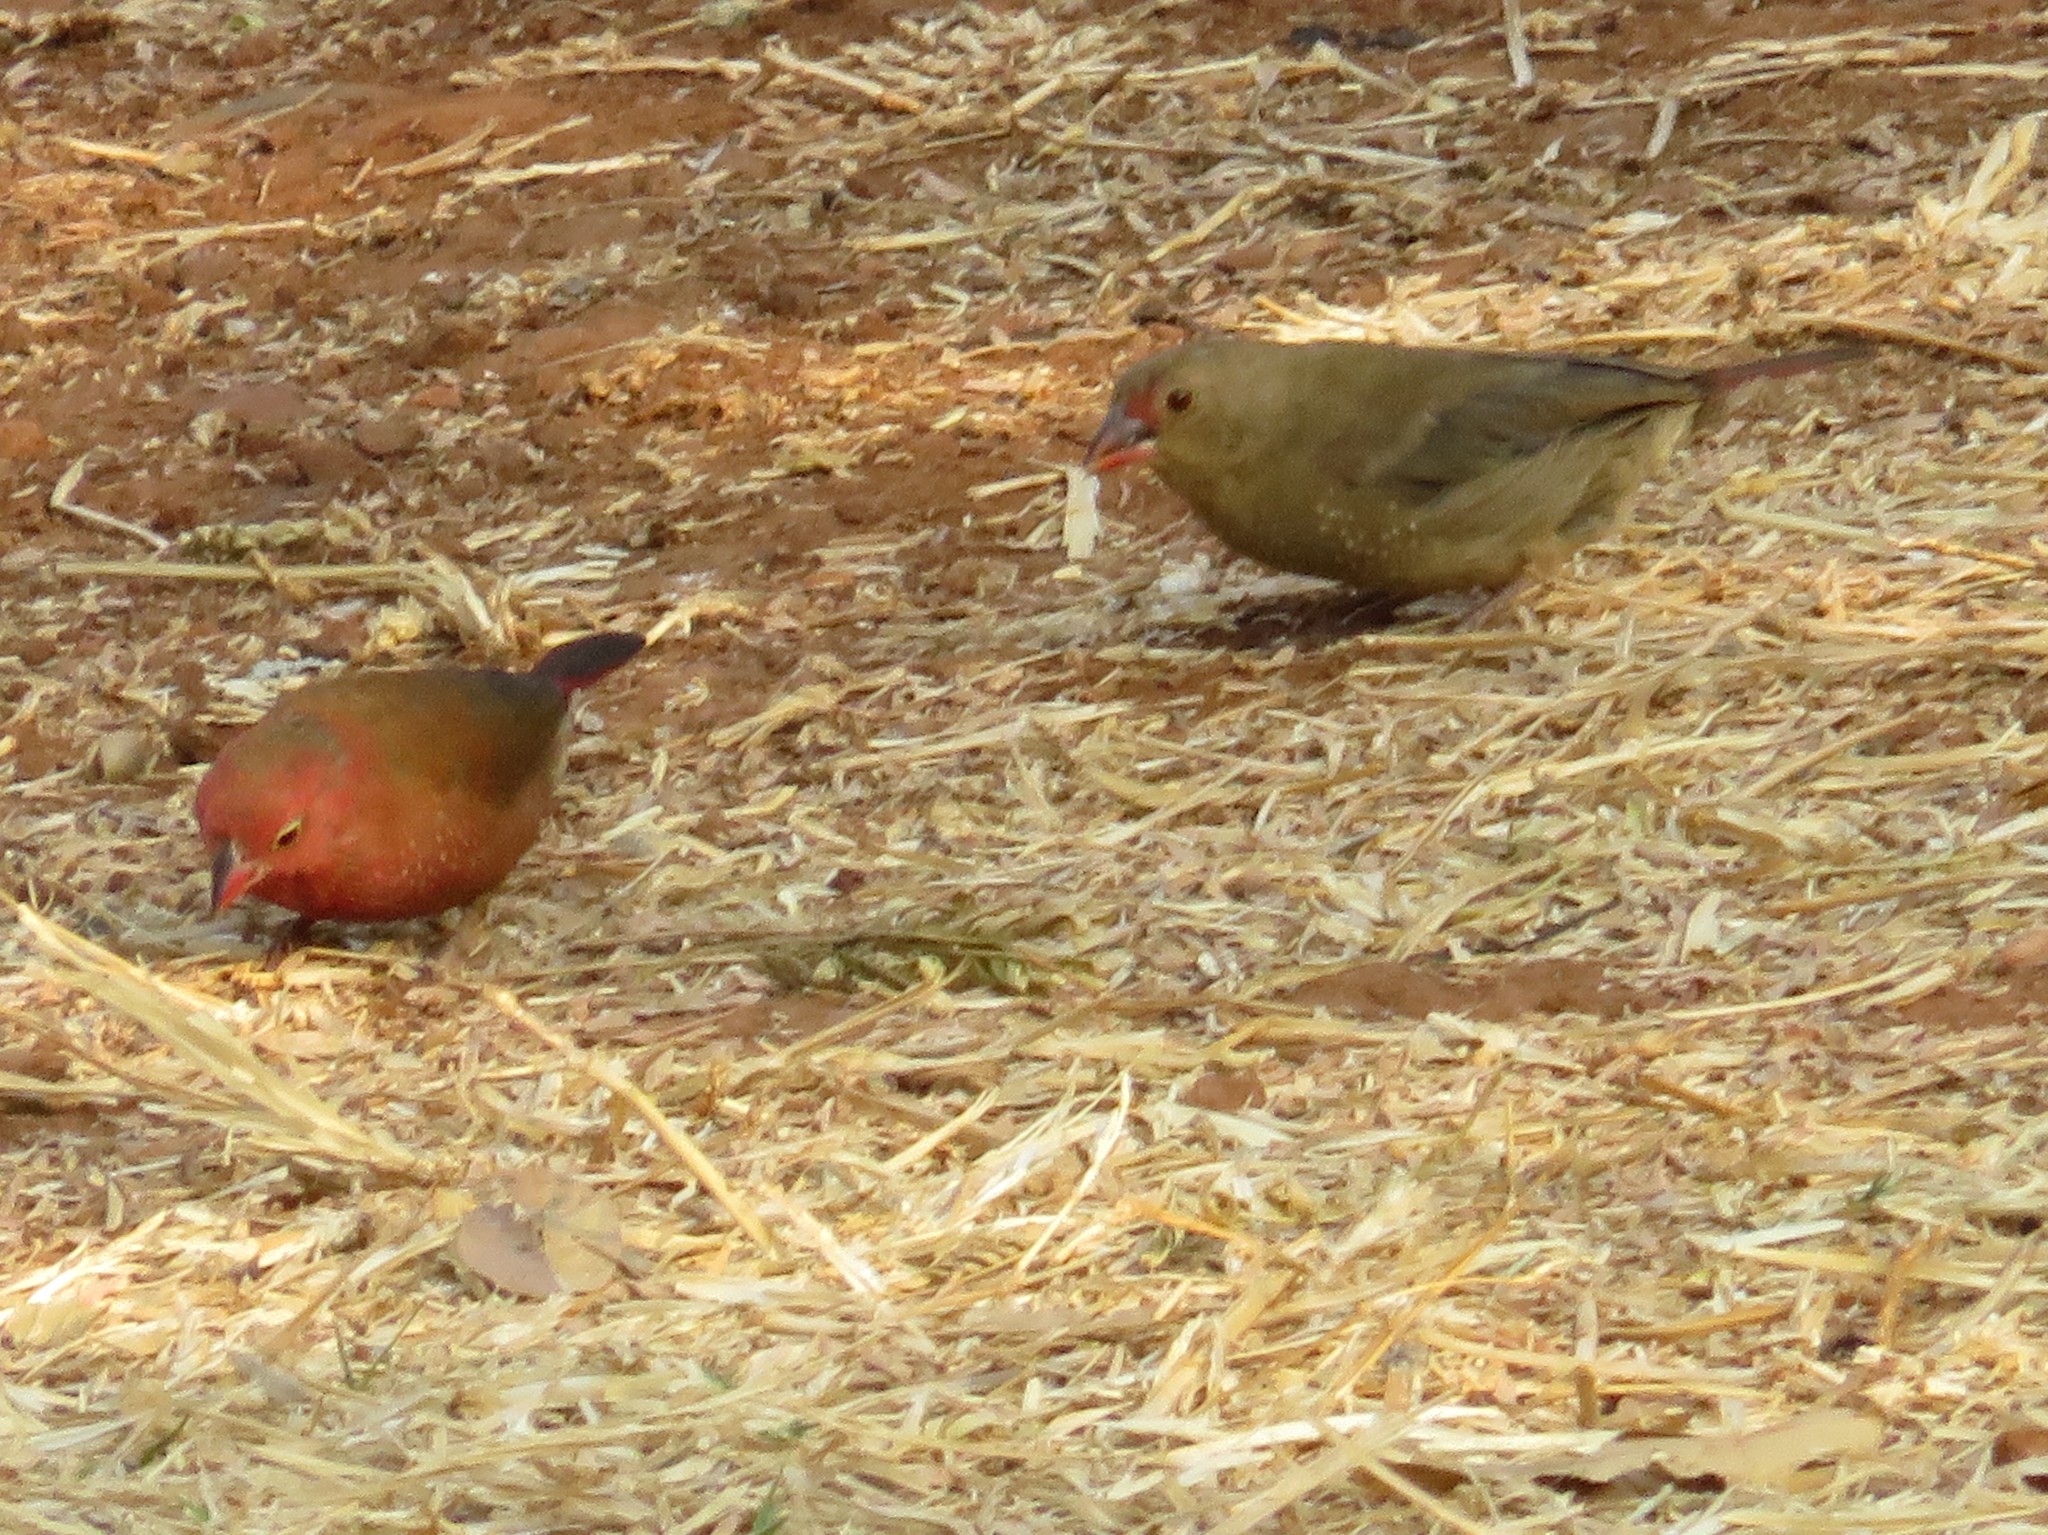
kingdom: Animalia
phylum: Chordata
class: Aves
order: Passeriformes
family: Estrildidae
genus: Lagonosticta
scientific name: Lagonosticta senegala
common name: Red-billed firefinch
